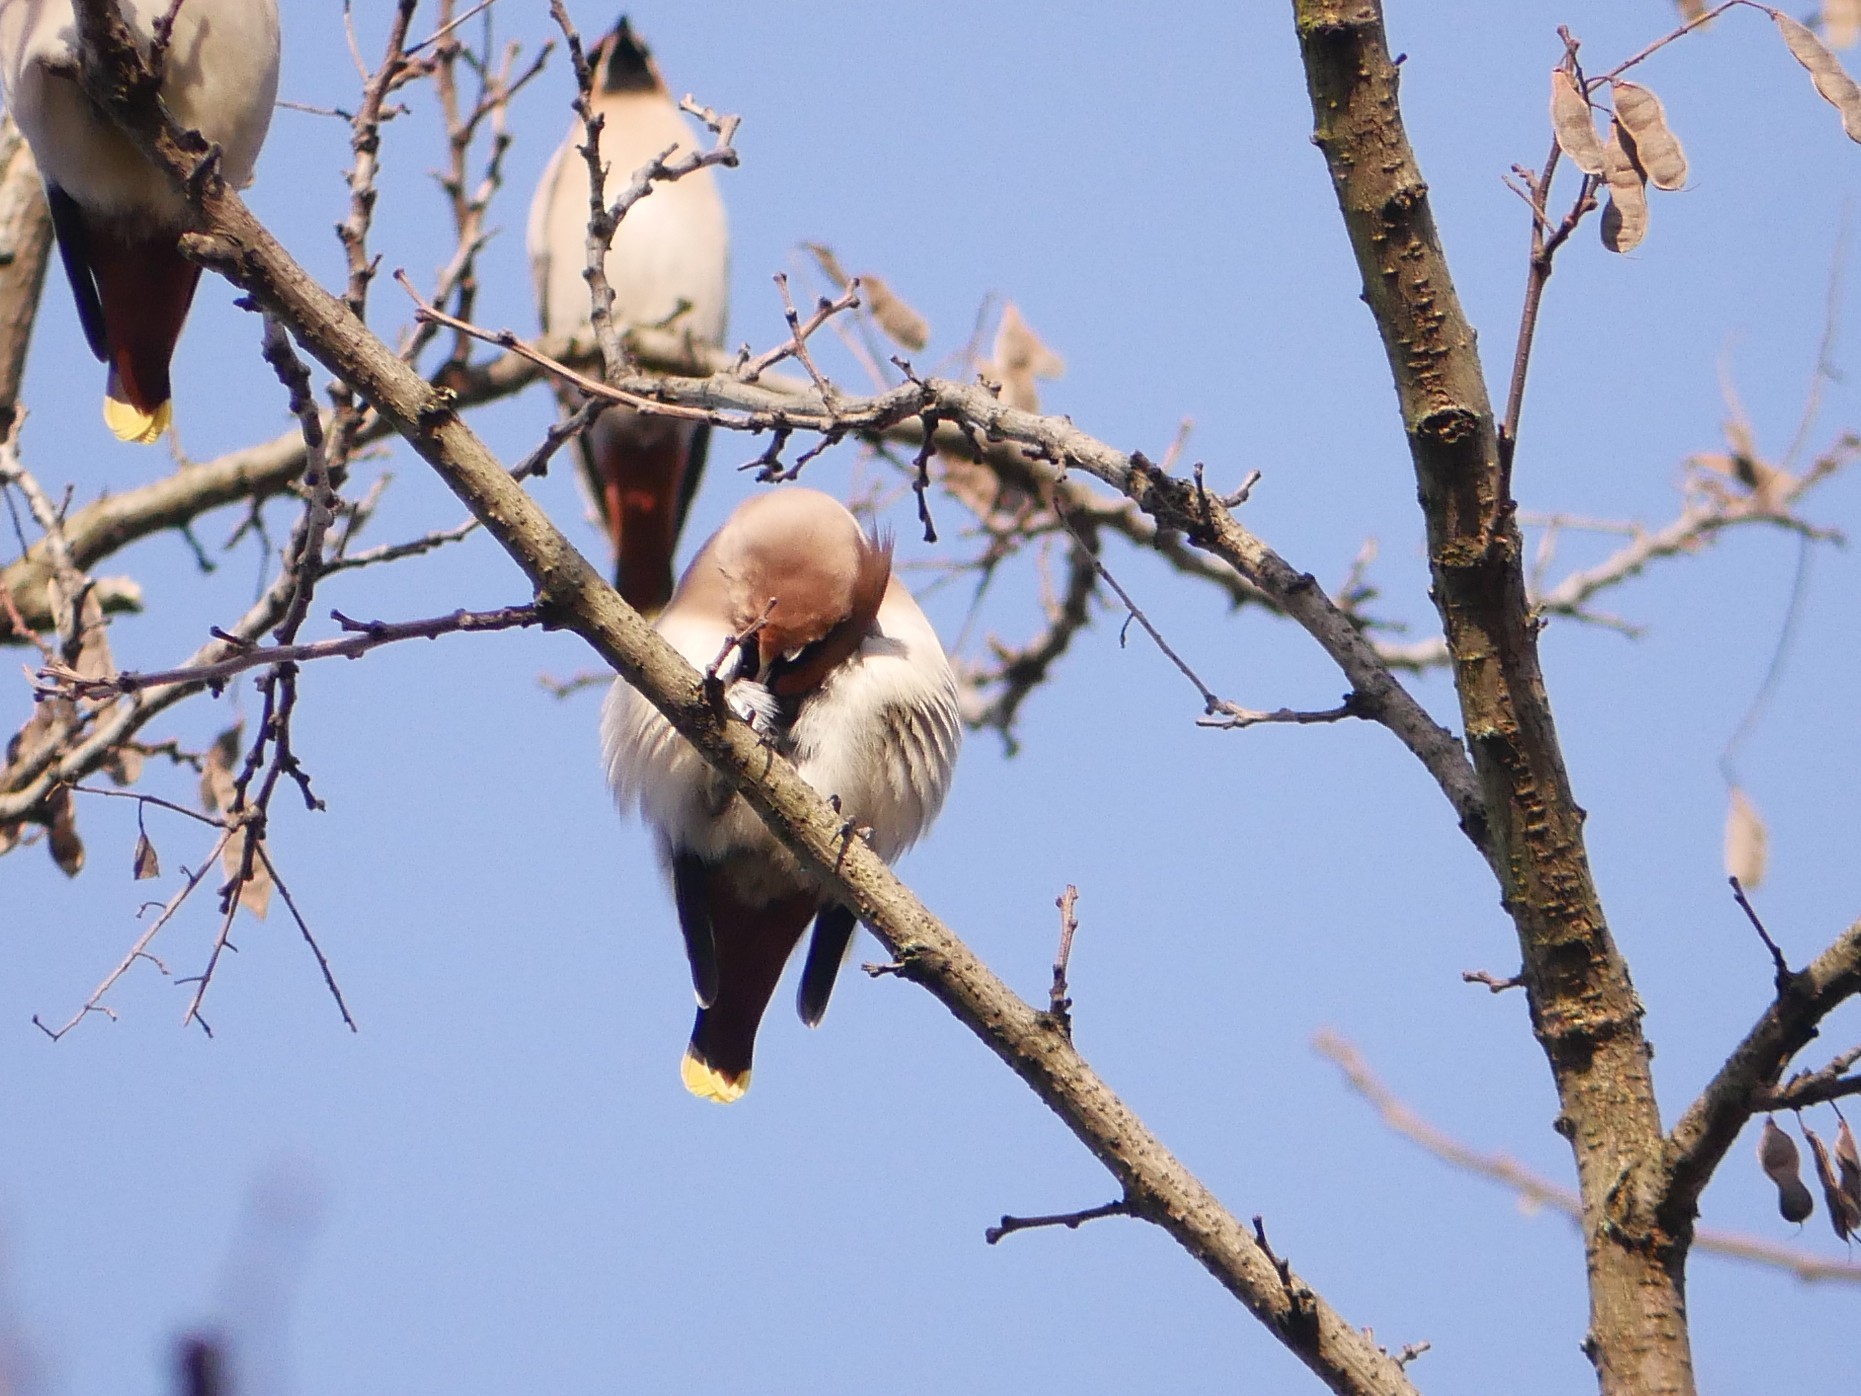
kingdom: Animalia
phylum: Chordata
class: Aves
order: Passeriformes
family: Bombycillidae
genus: Bombycilla
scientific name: Bombycilla garrulus
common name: Bohemian waxwing
